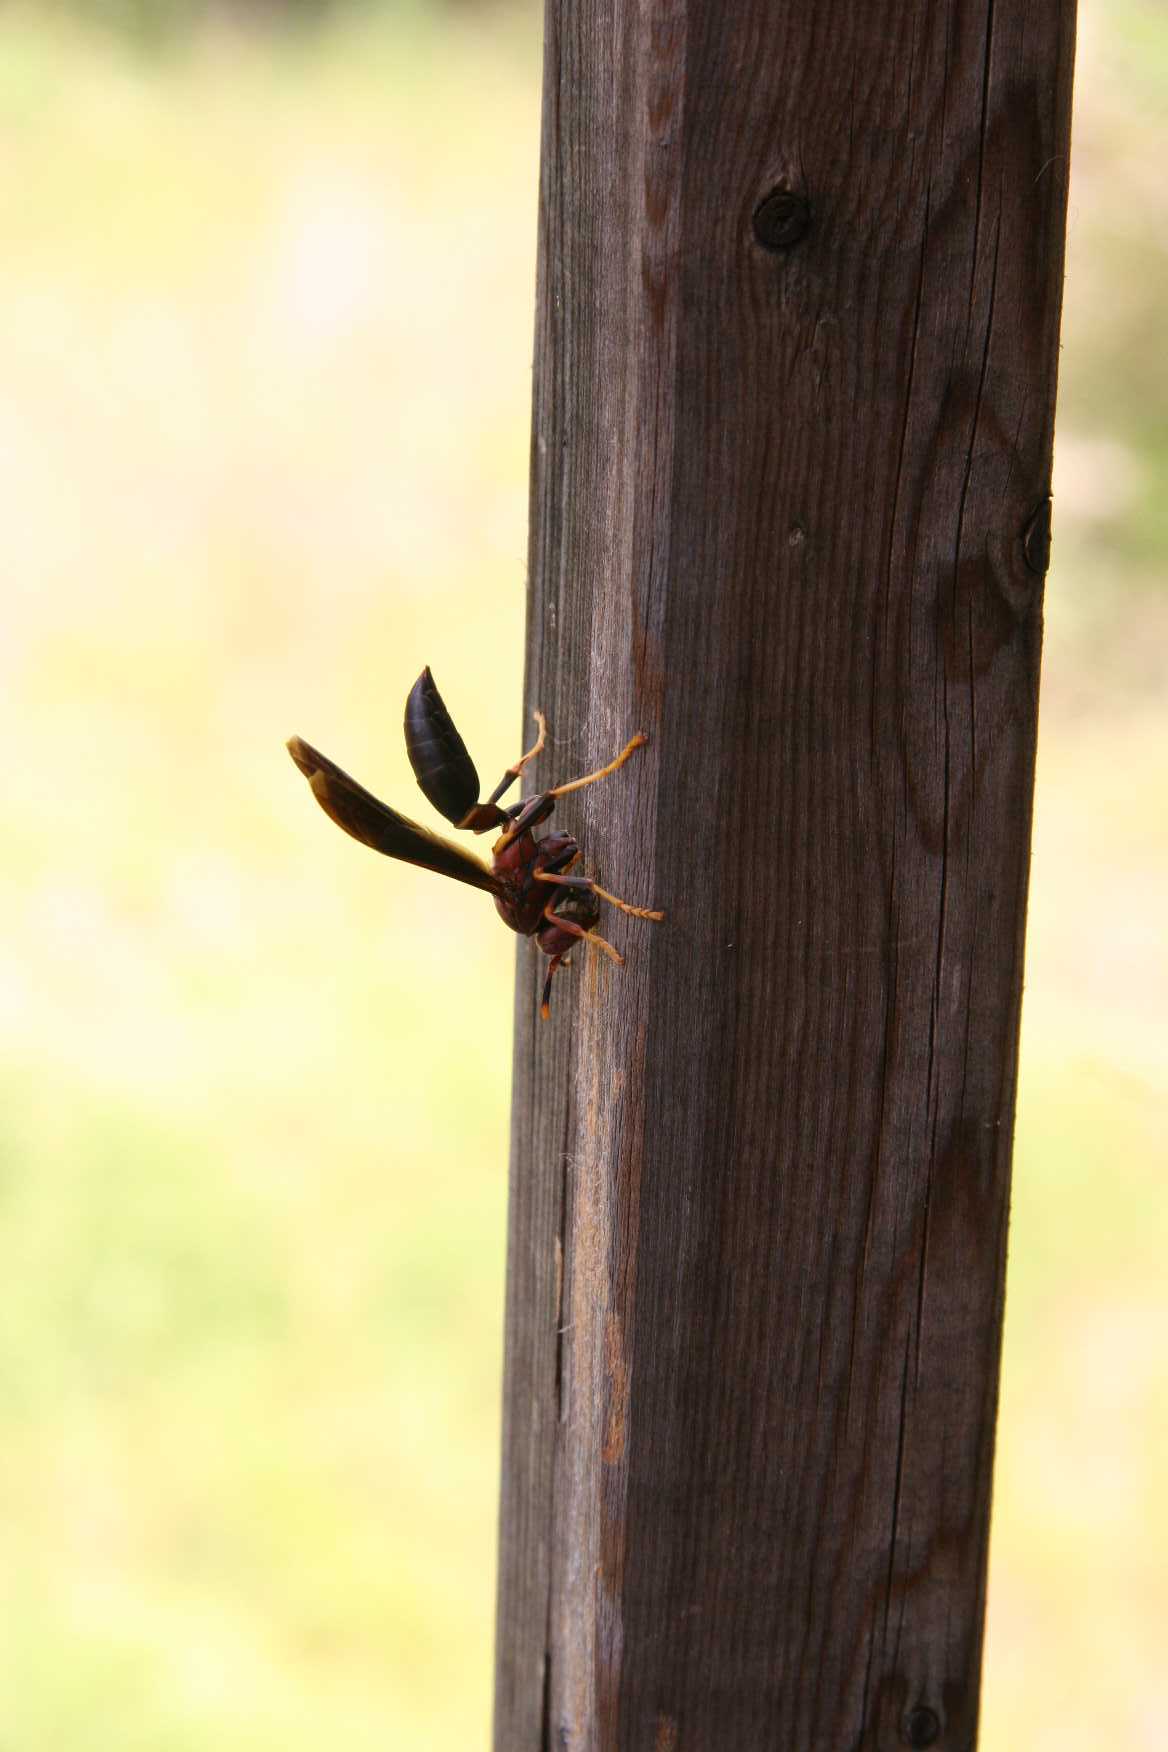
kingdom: Animalia
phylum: Arthropoda
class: Insecta
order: Hymenoptera
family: Eumenidae
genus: Polistes
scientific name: Polistes annularis
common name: Ringed paper wasp
